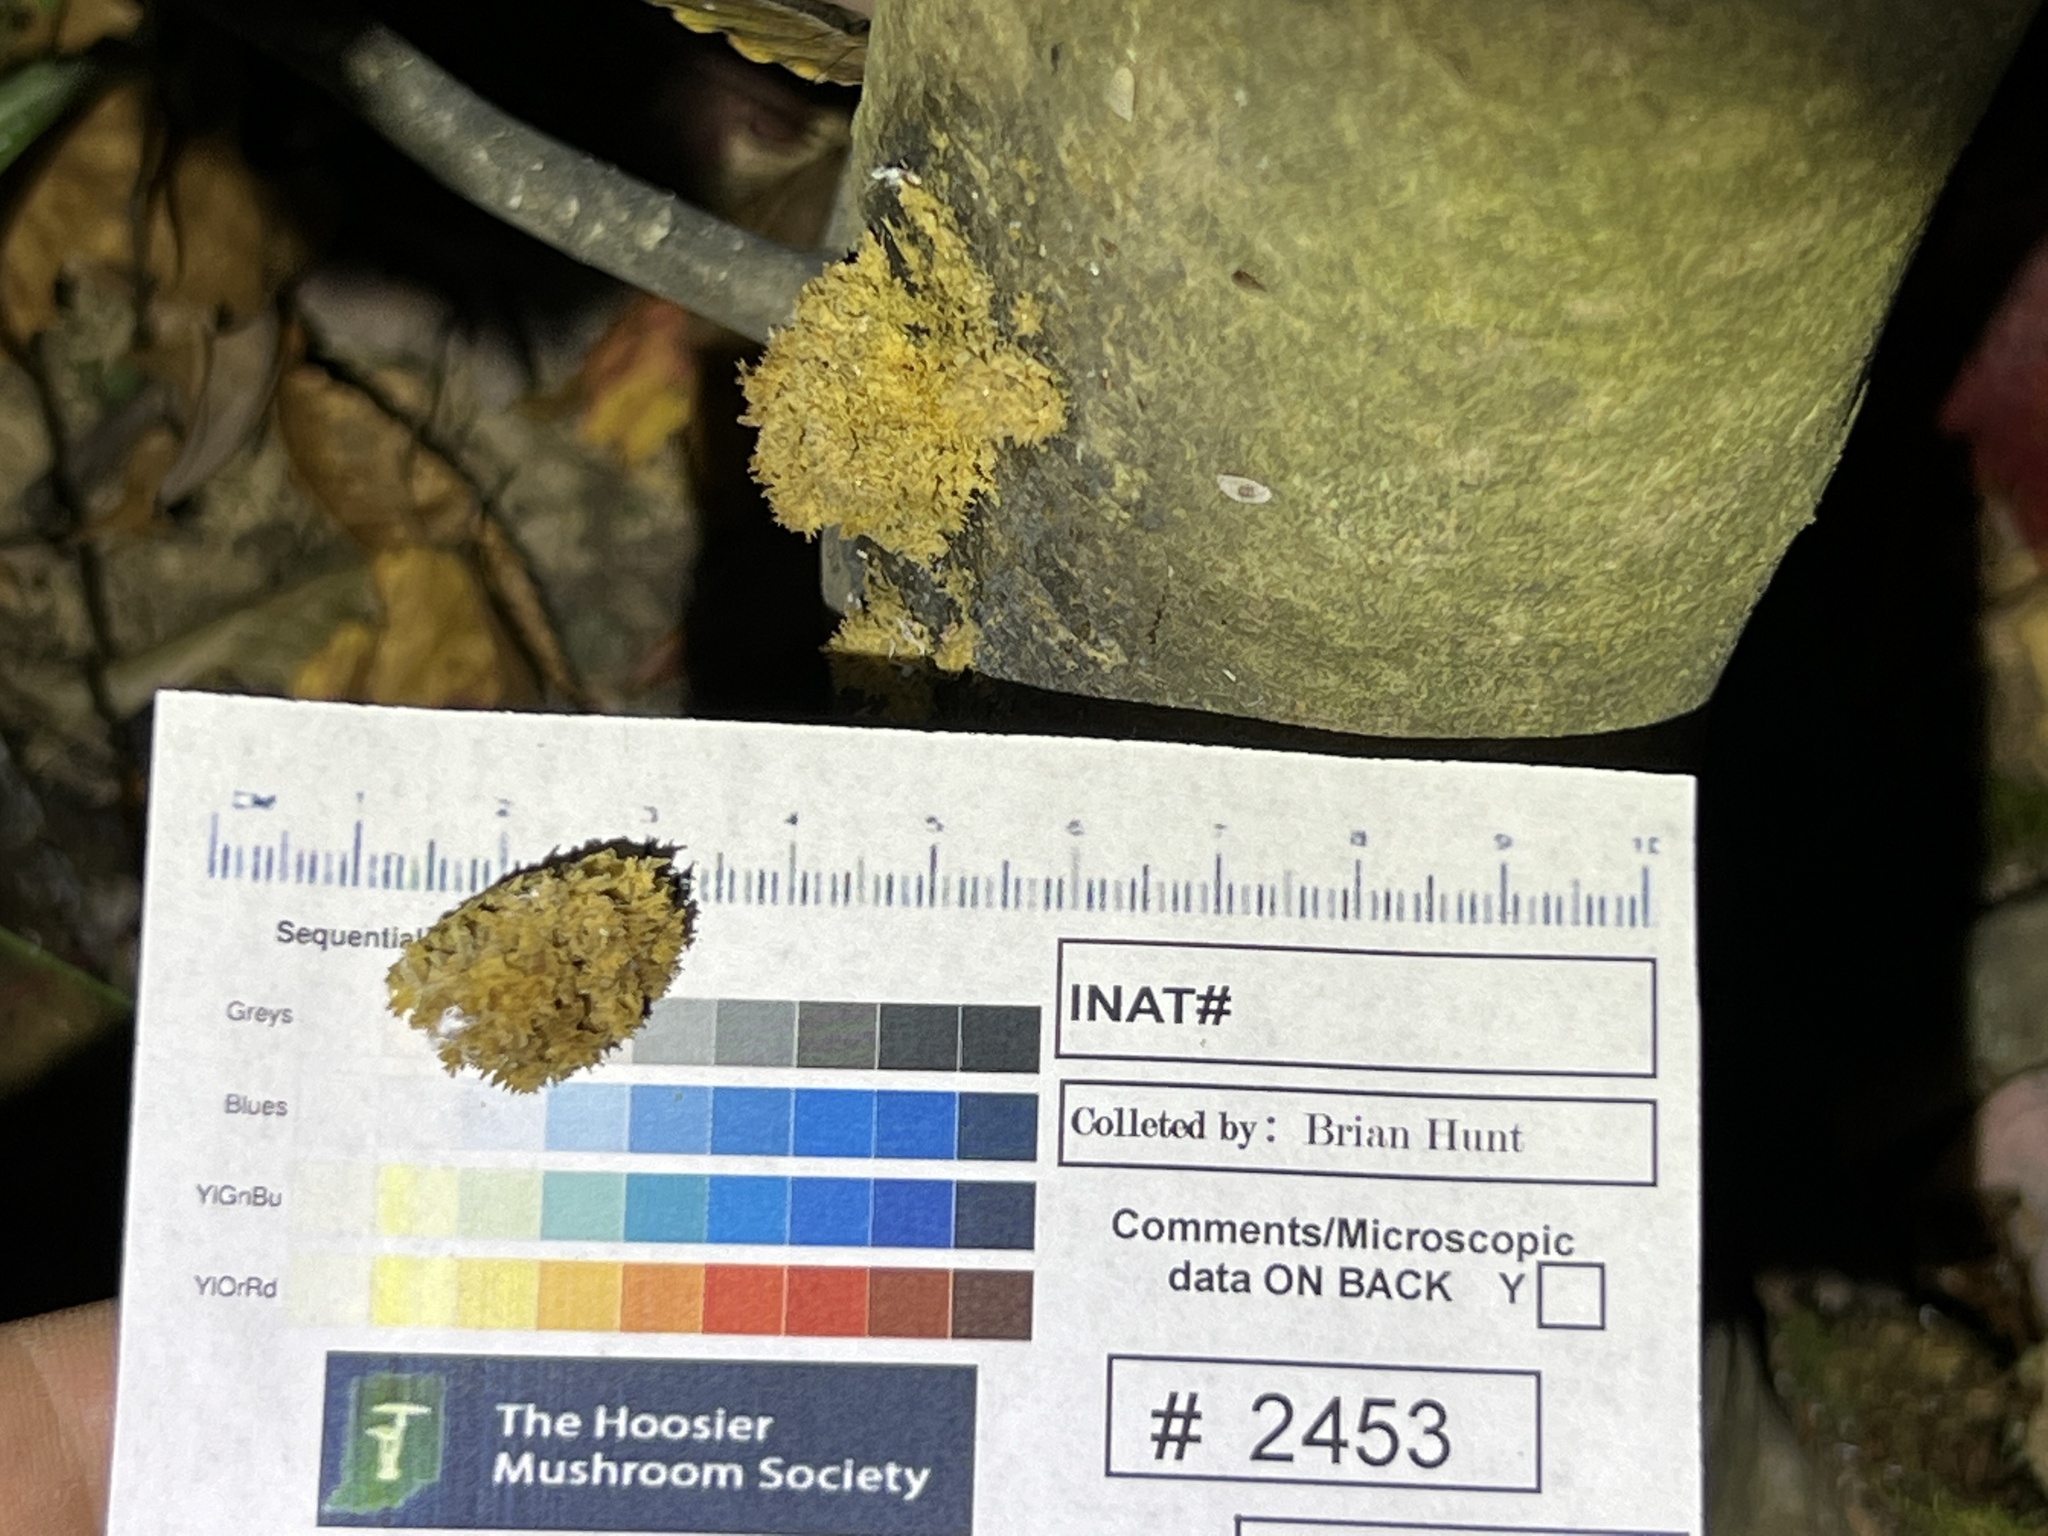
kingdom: Fungi
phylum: Ascomycota
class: Dothideomycetes
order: Capnodiales
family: Capnodiaceae
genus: Scorias
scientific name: Scorias spongiosa
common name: Black sooty mold
